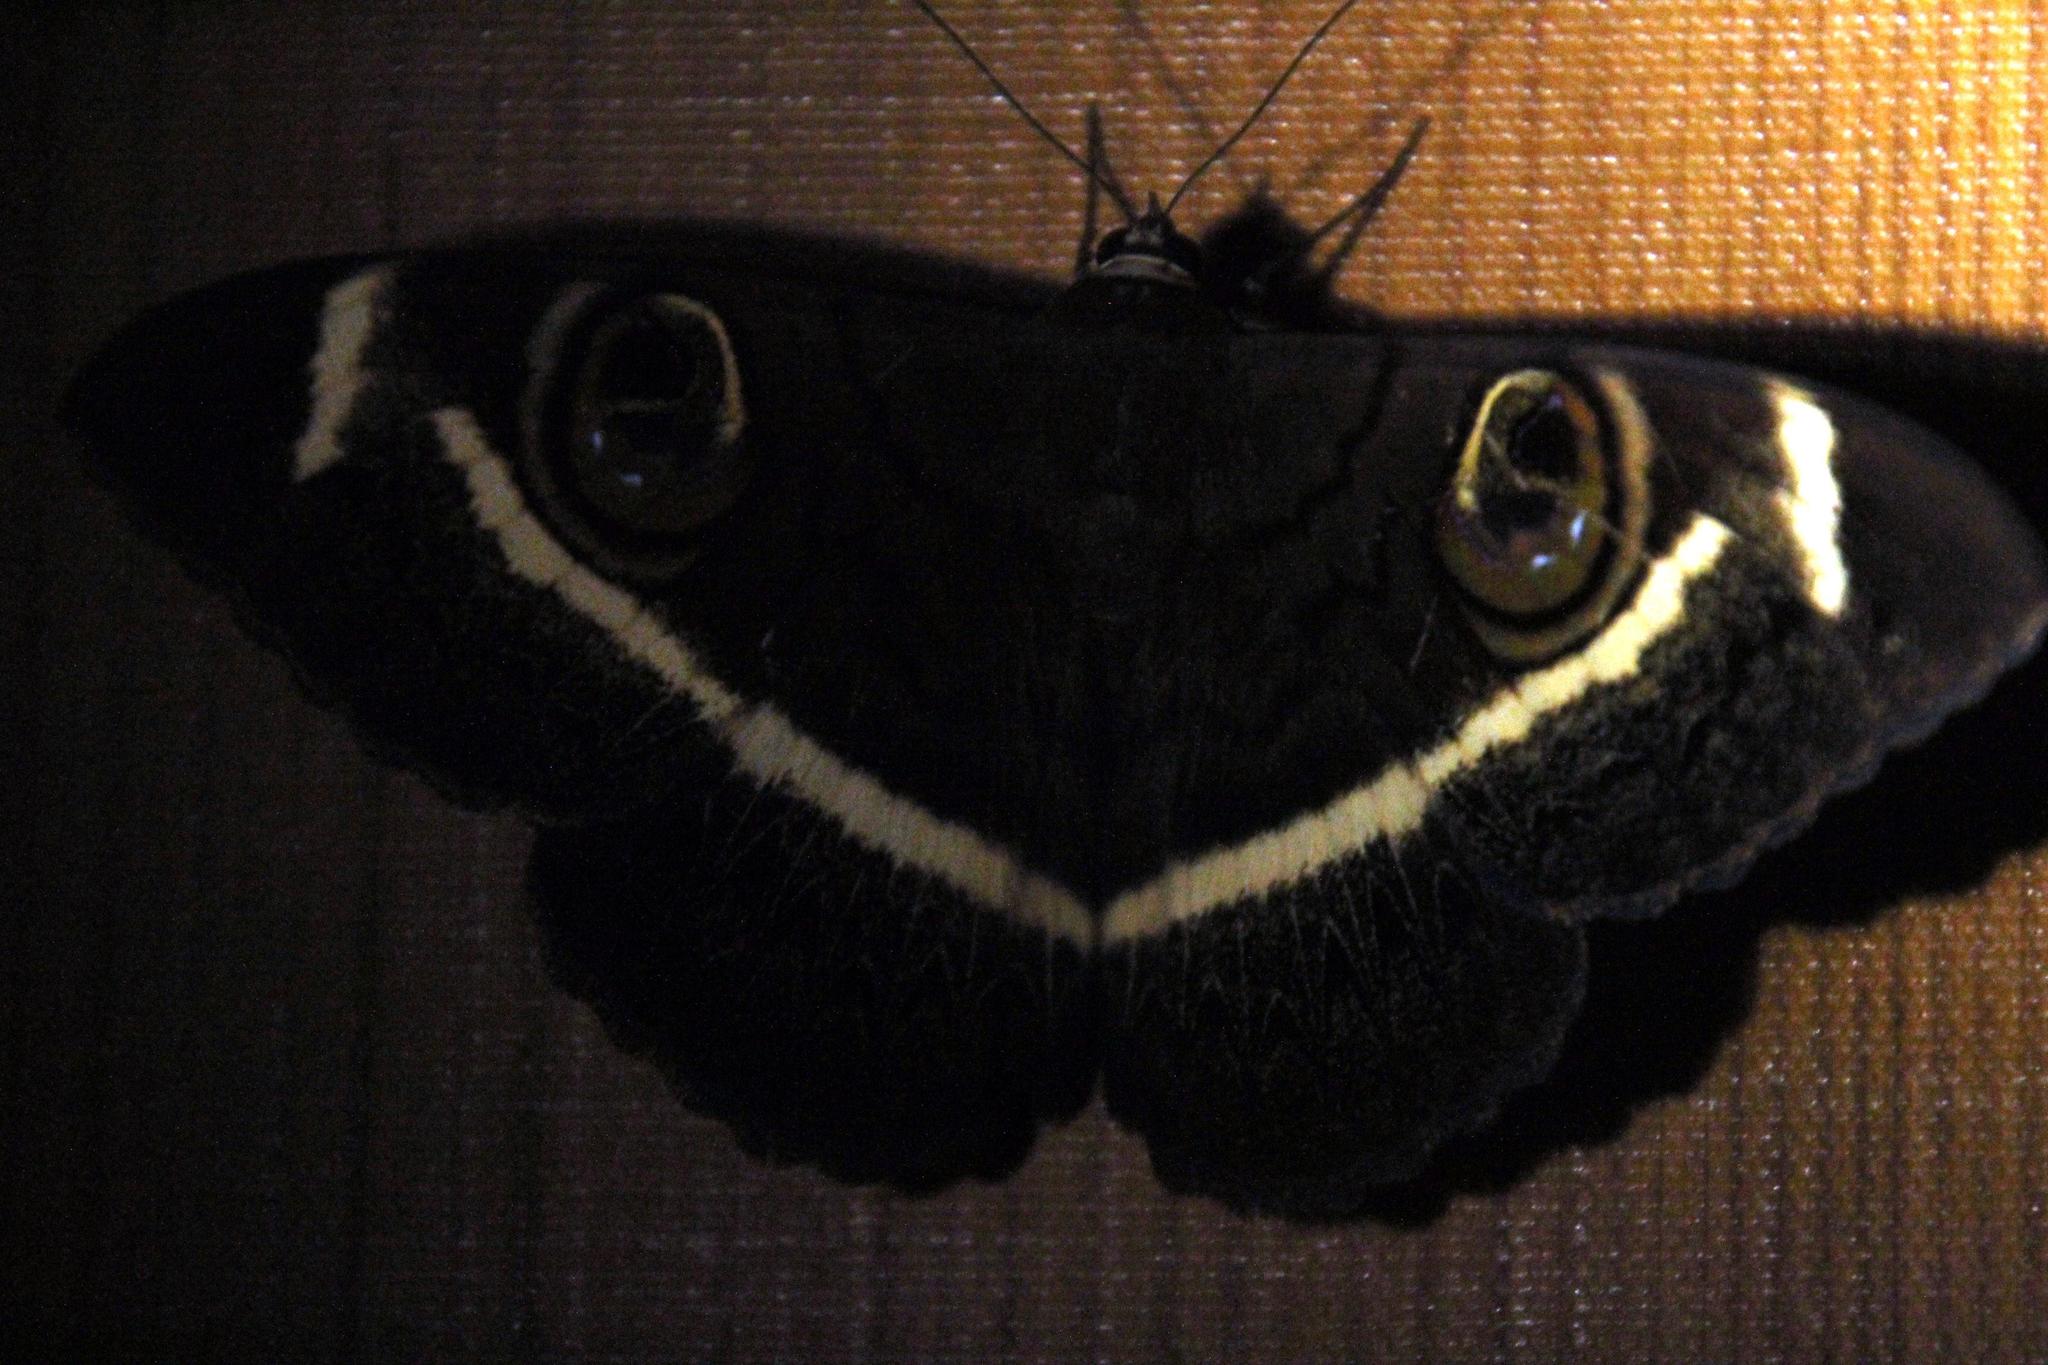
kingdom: Animalia
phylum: Arthropoda
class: Insecta
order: Lepidoptera
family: Erebidae
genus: Cyligramma
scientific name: Cyligramma latona
